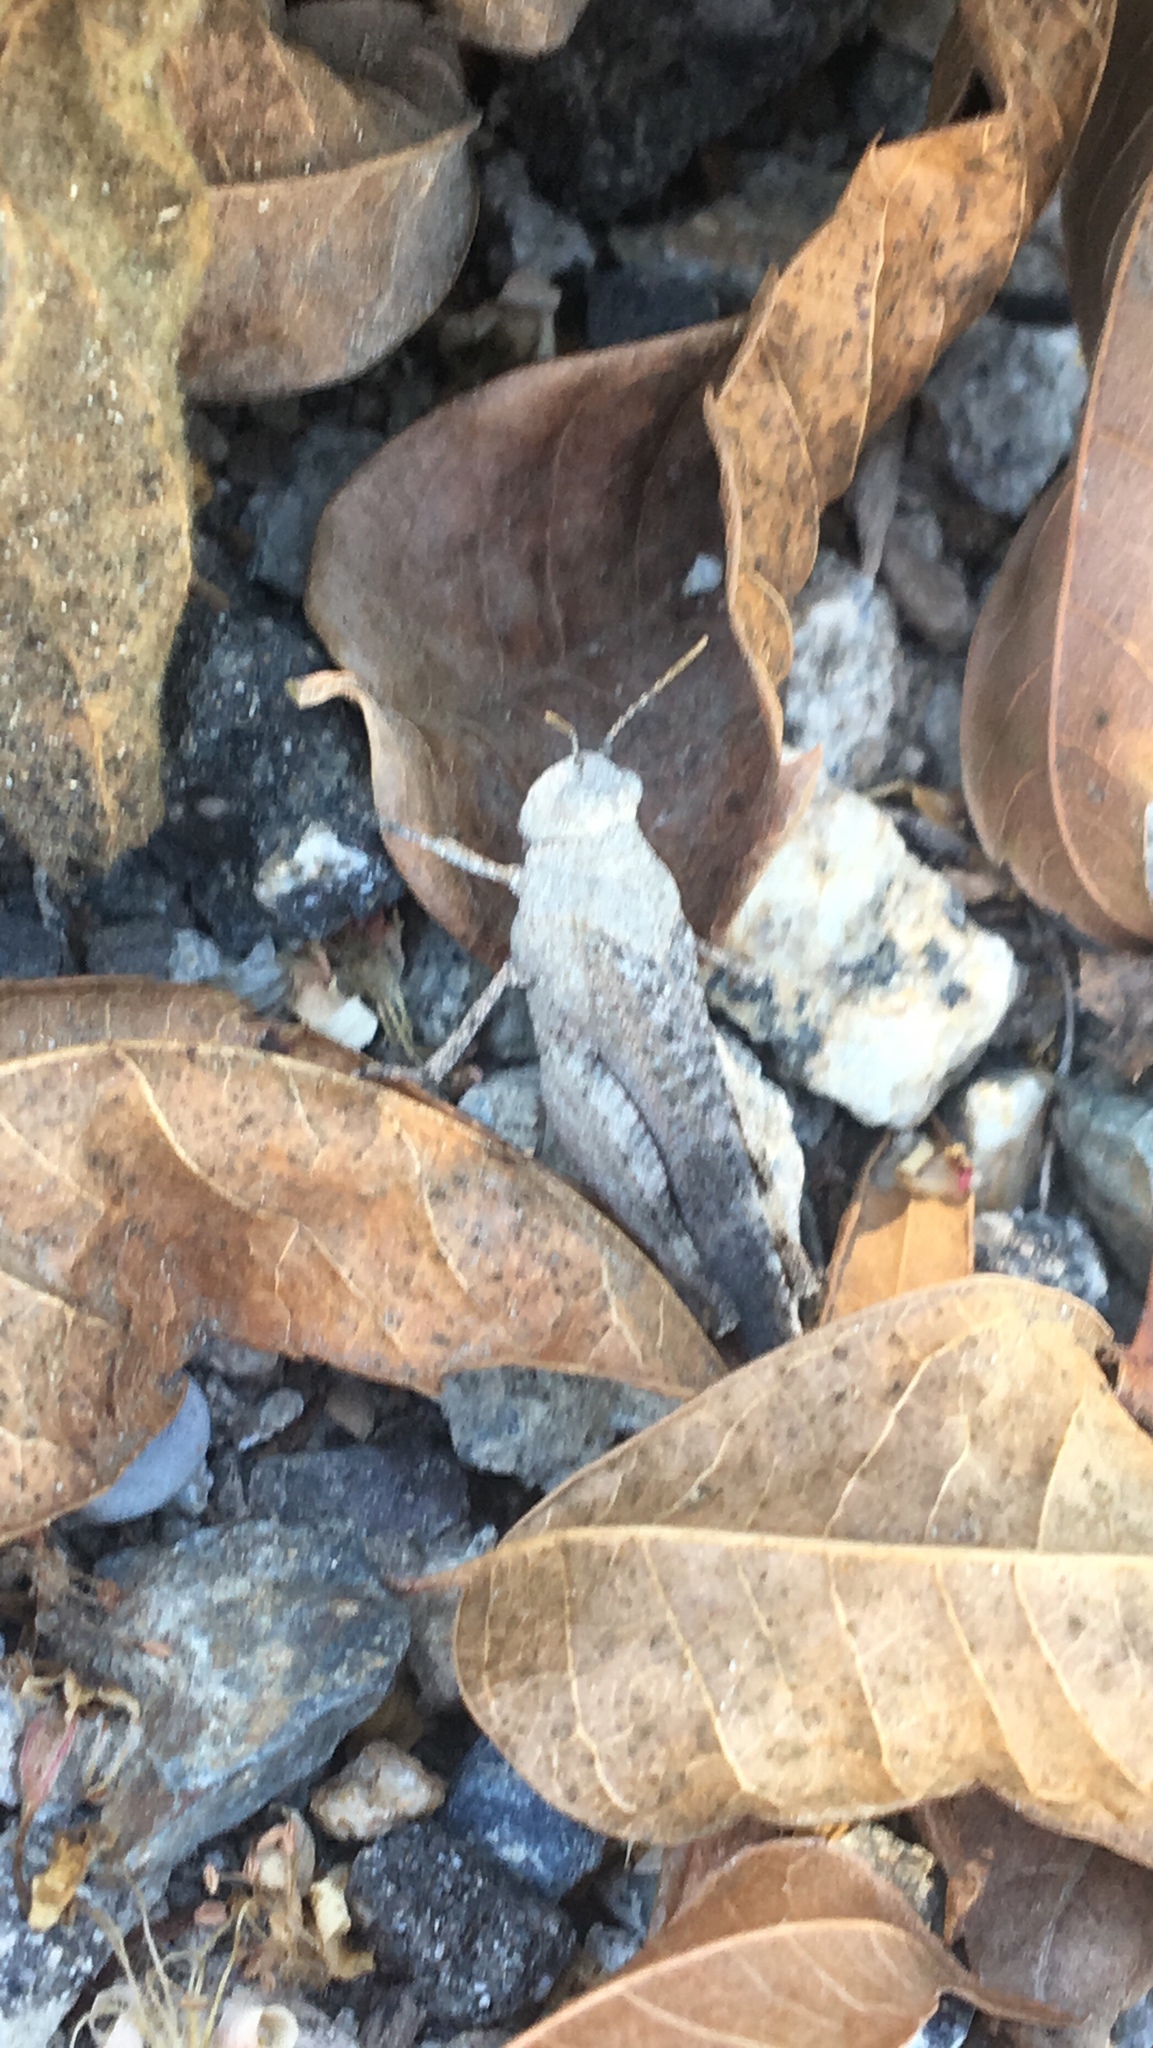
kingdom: Animalia
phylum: Arthropoda
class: Insecta
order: Orthoptera
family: Acrididae
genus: Lactista
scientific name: Lactista gibbosus
